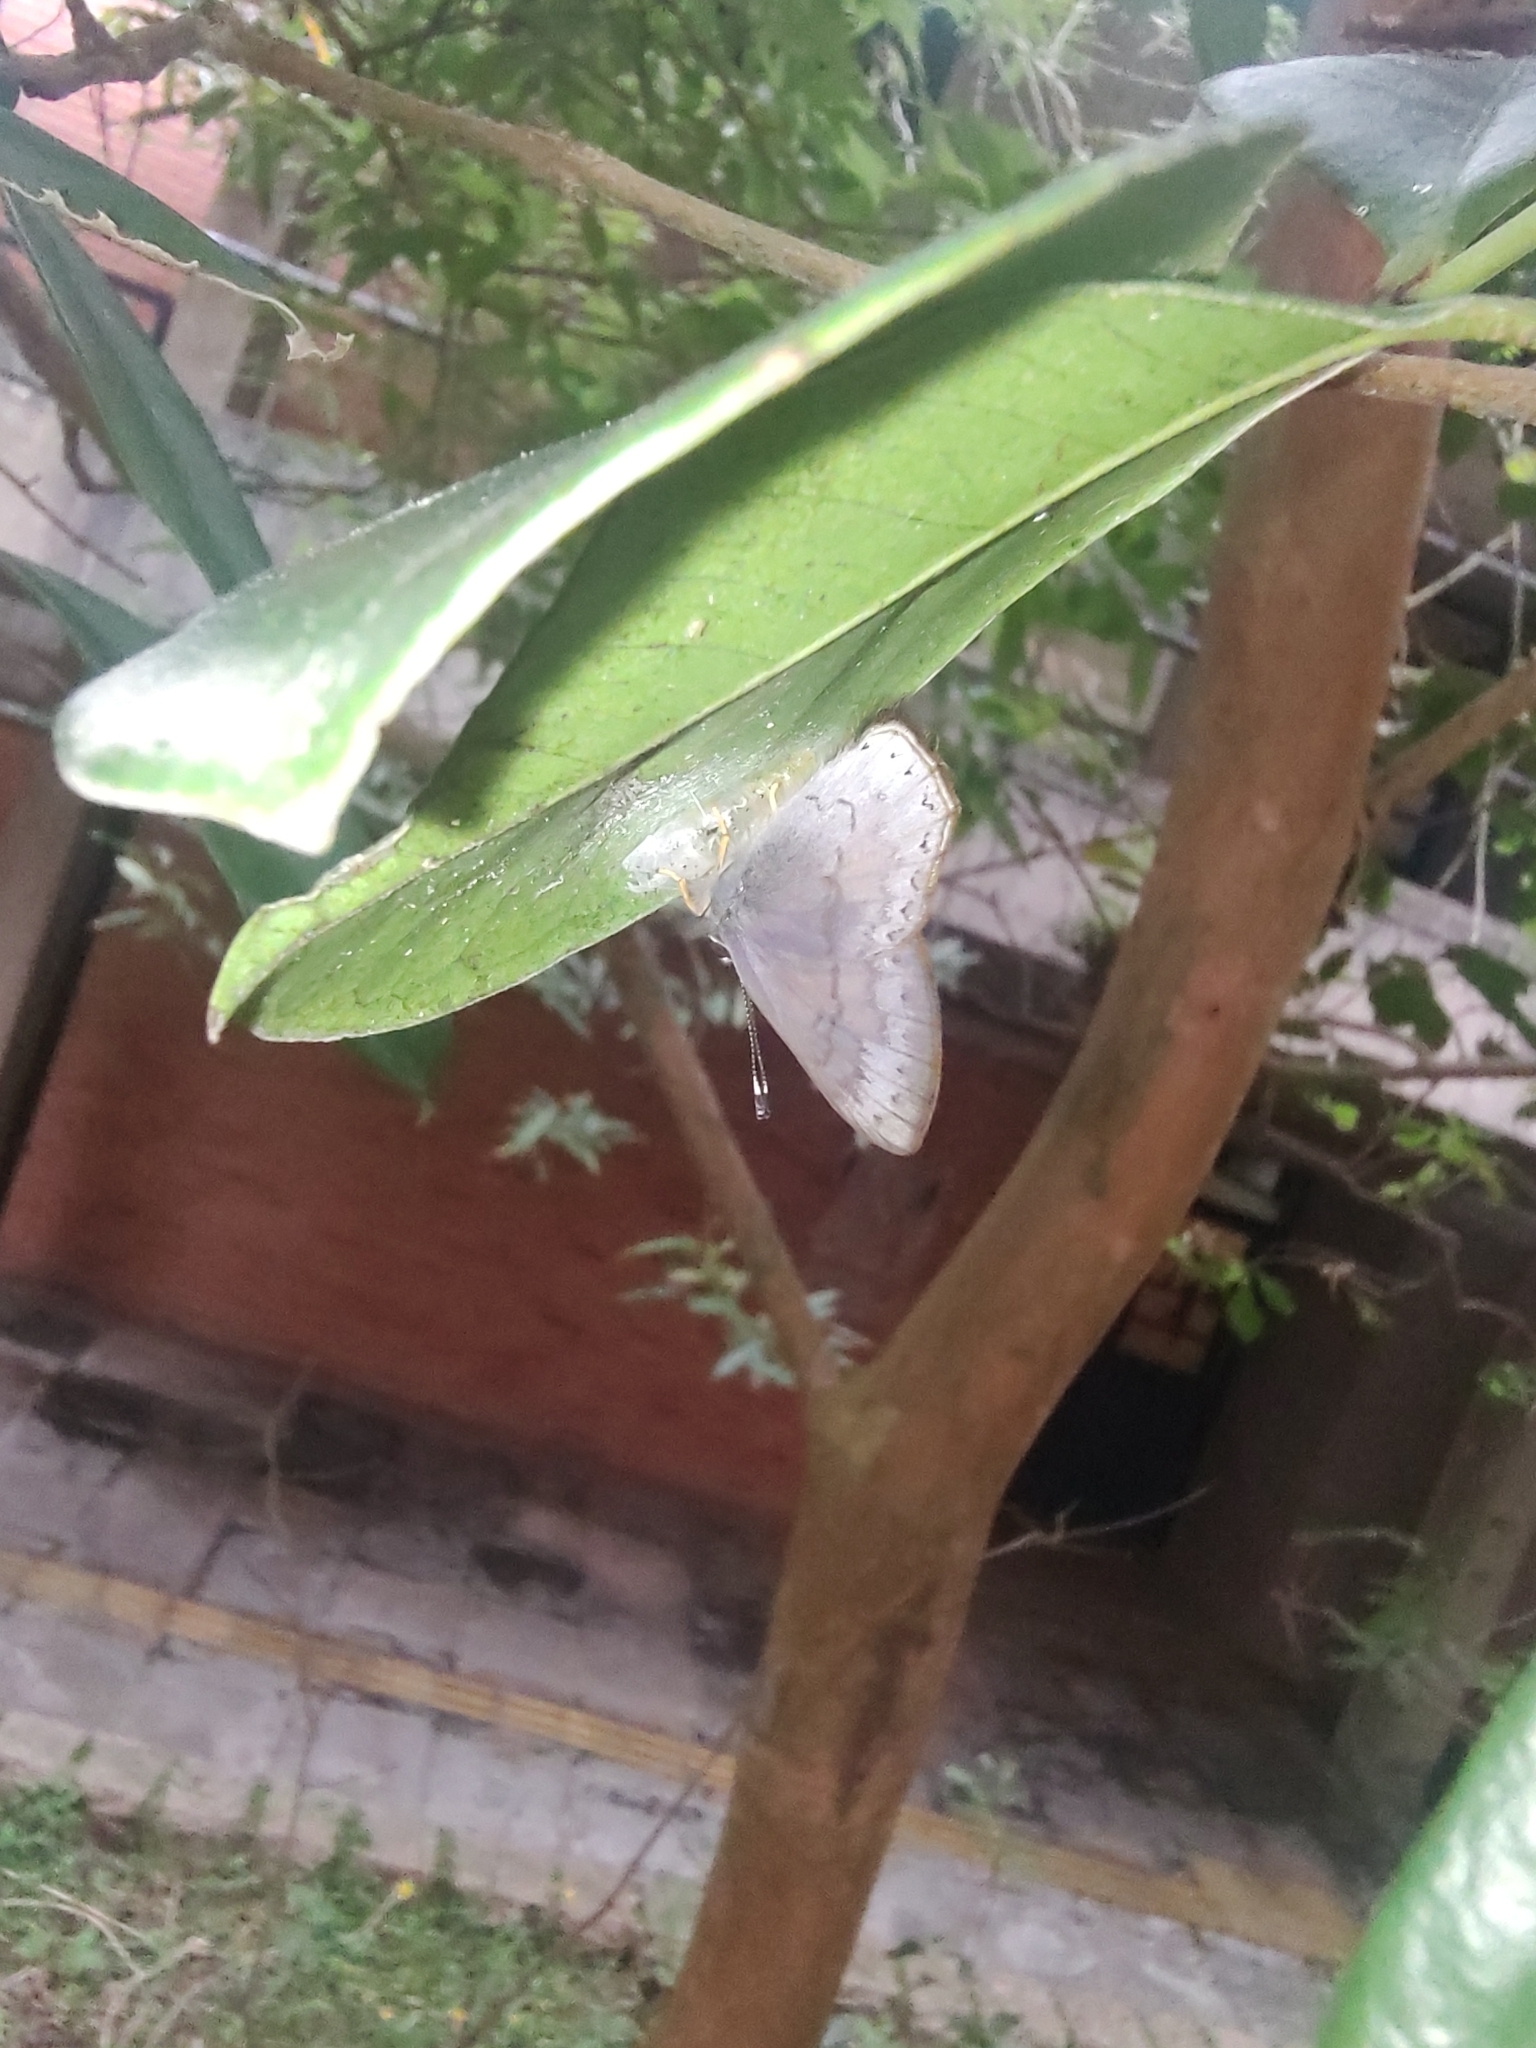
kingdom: Animalia
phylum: Arthropoda
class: Insecta
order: Lepidoptera
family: Lycaenidae
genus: Euselasia
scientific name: Euselasia eucerus
